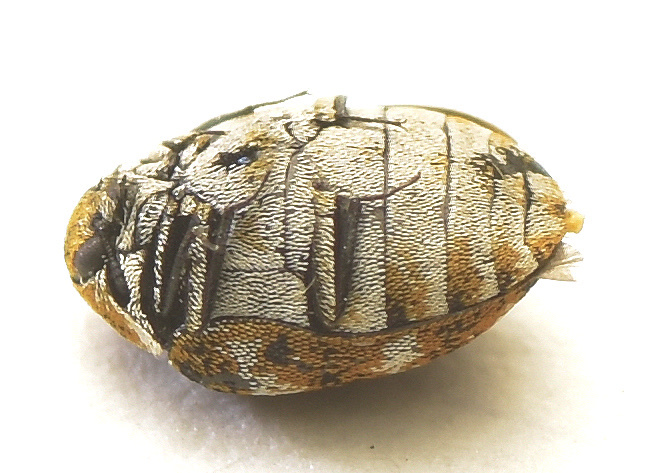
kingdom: Animalia
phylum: Arthropoda
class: Insecta
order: Coleoptera
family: Dermestidae
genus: Anthrenus
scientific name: Anthrenus verbasci
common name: Varied carpet beetle
